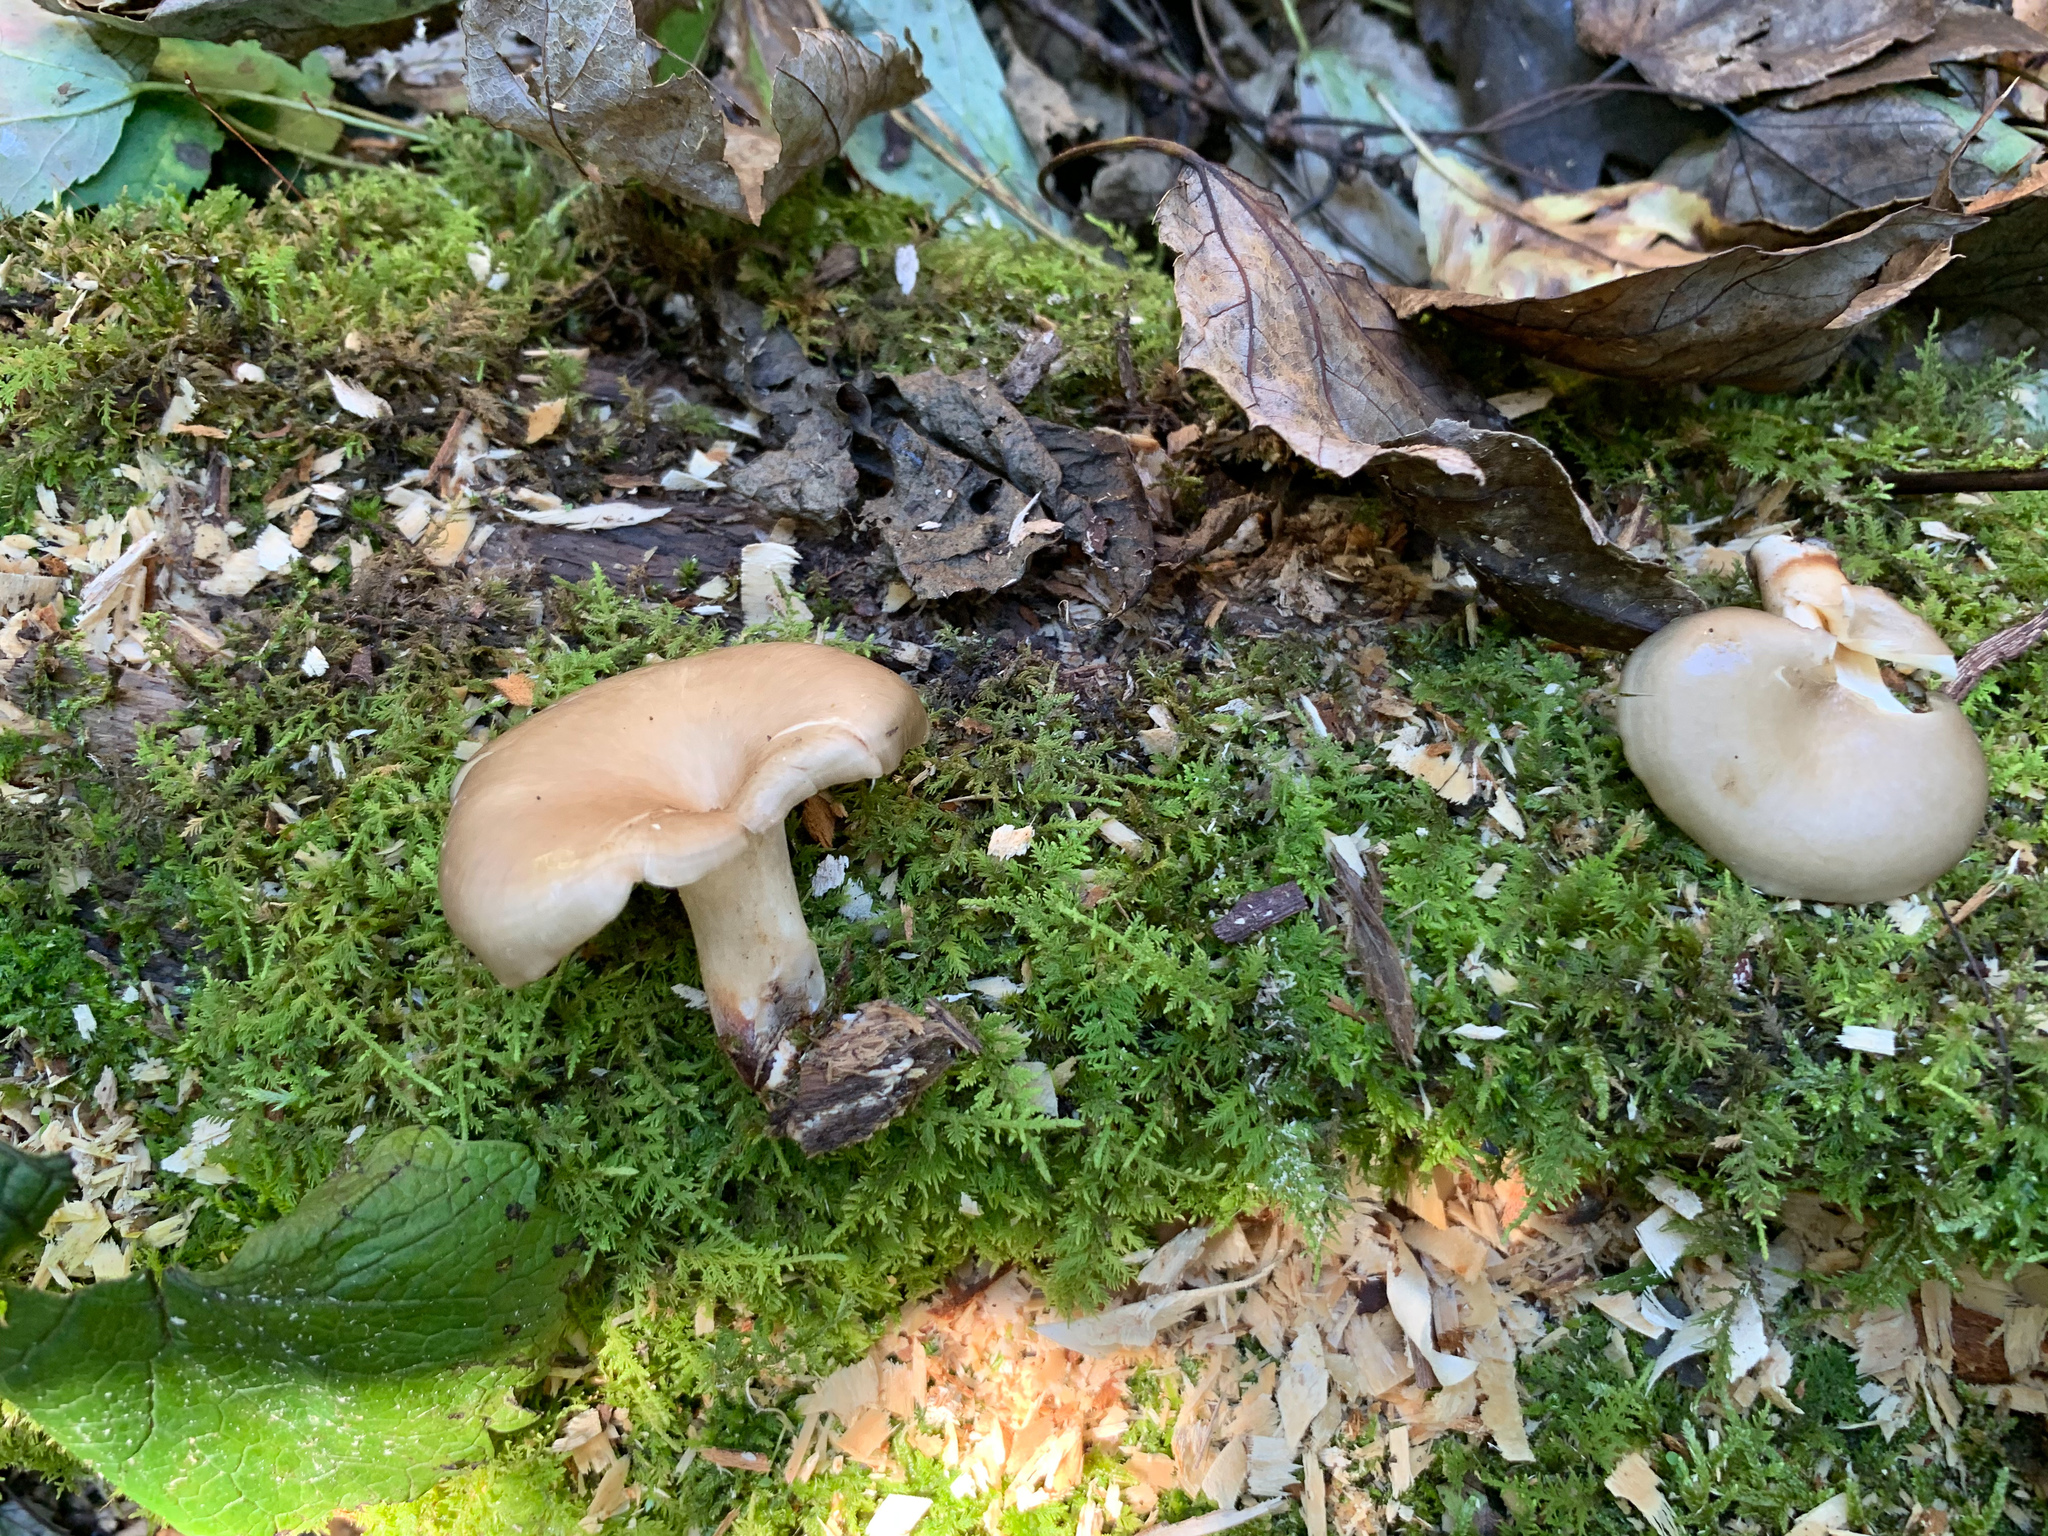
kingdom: Fungi
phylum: Basidiomycota
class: Agaricomycetes
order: Polyporales
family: Polyporaceae
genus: Picipes
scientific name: Picipes badius
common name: Bay polypore
